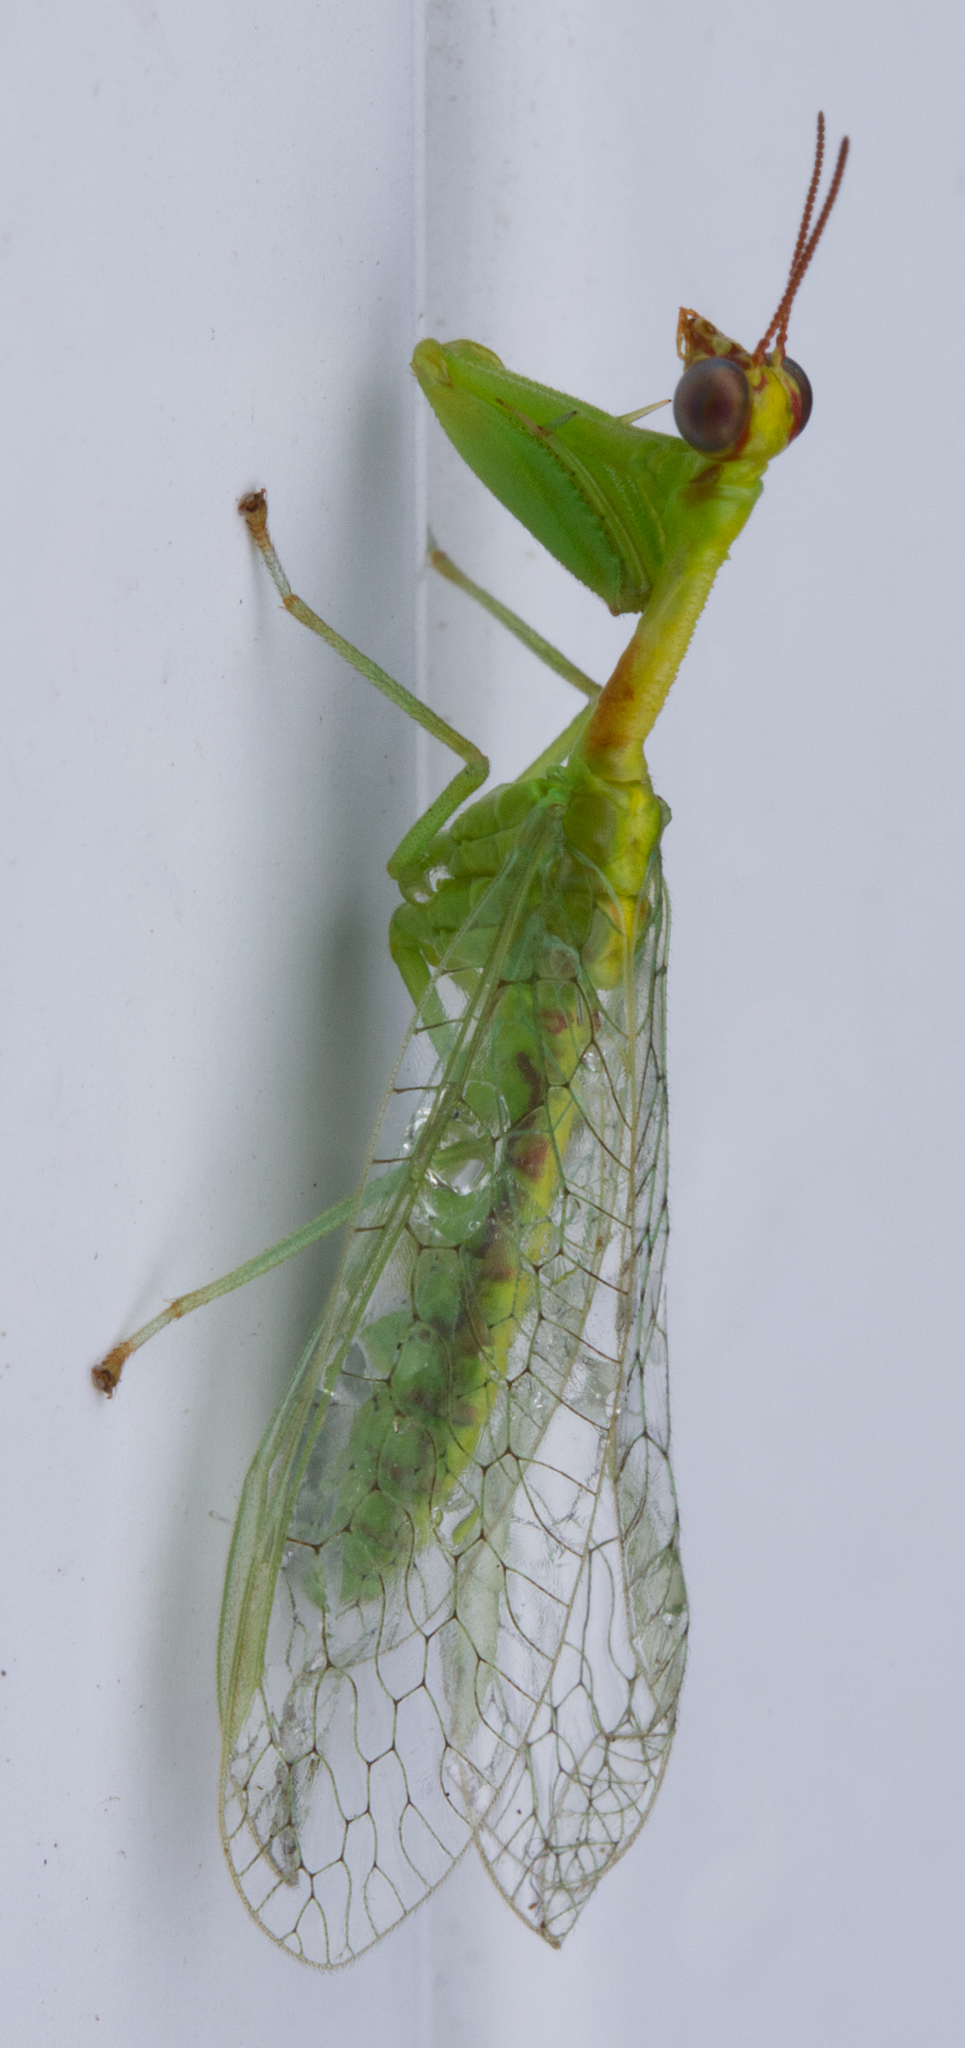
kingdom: Animalia
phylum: Arthropoda
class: Insecta
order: Neuroptera
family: Mantispidae
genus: Zeugomantispa
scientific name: Zeugomantispa minuta
